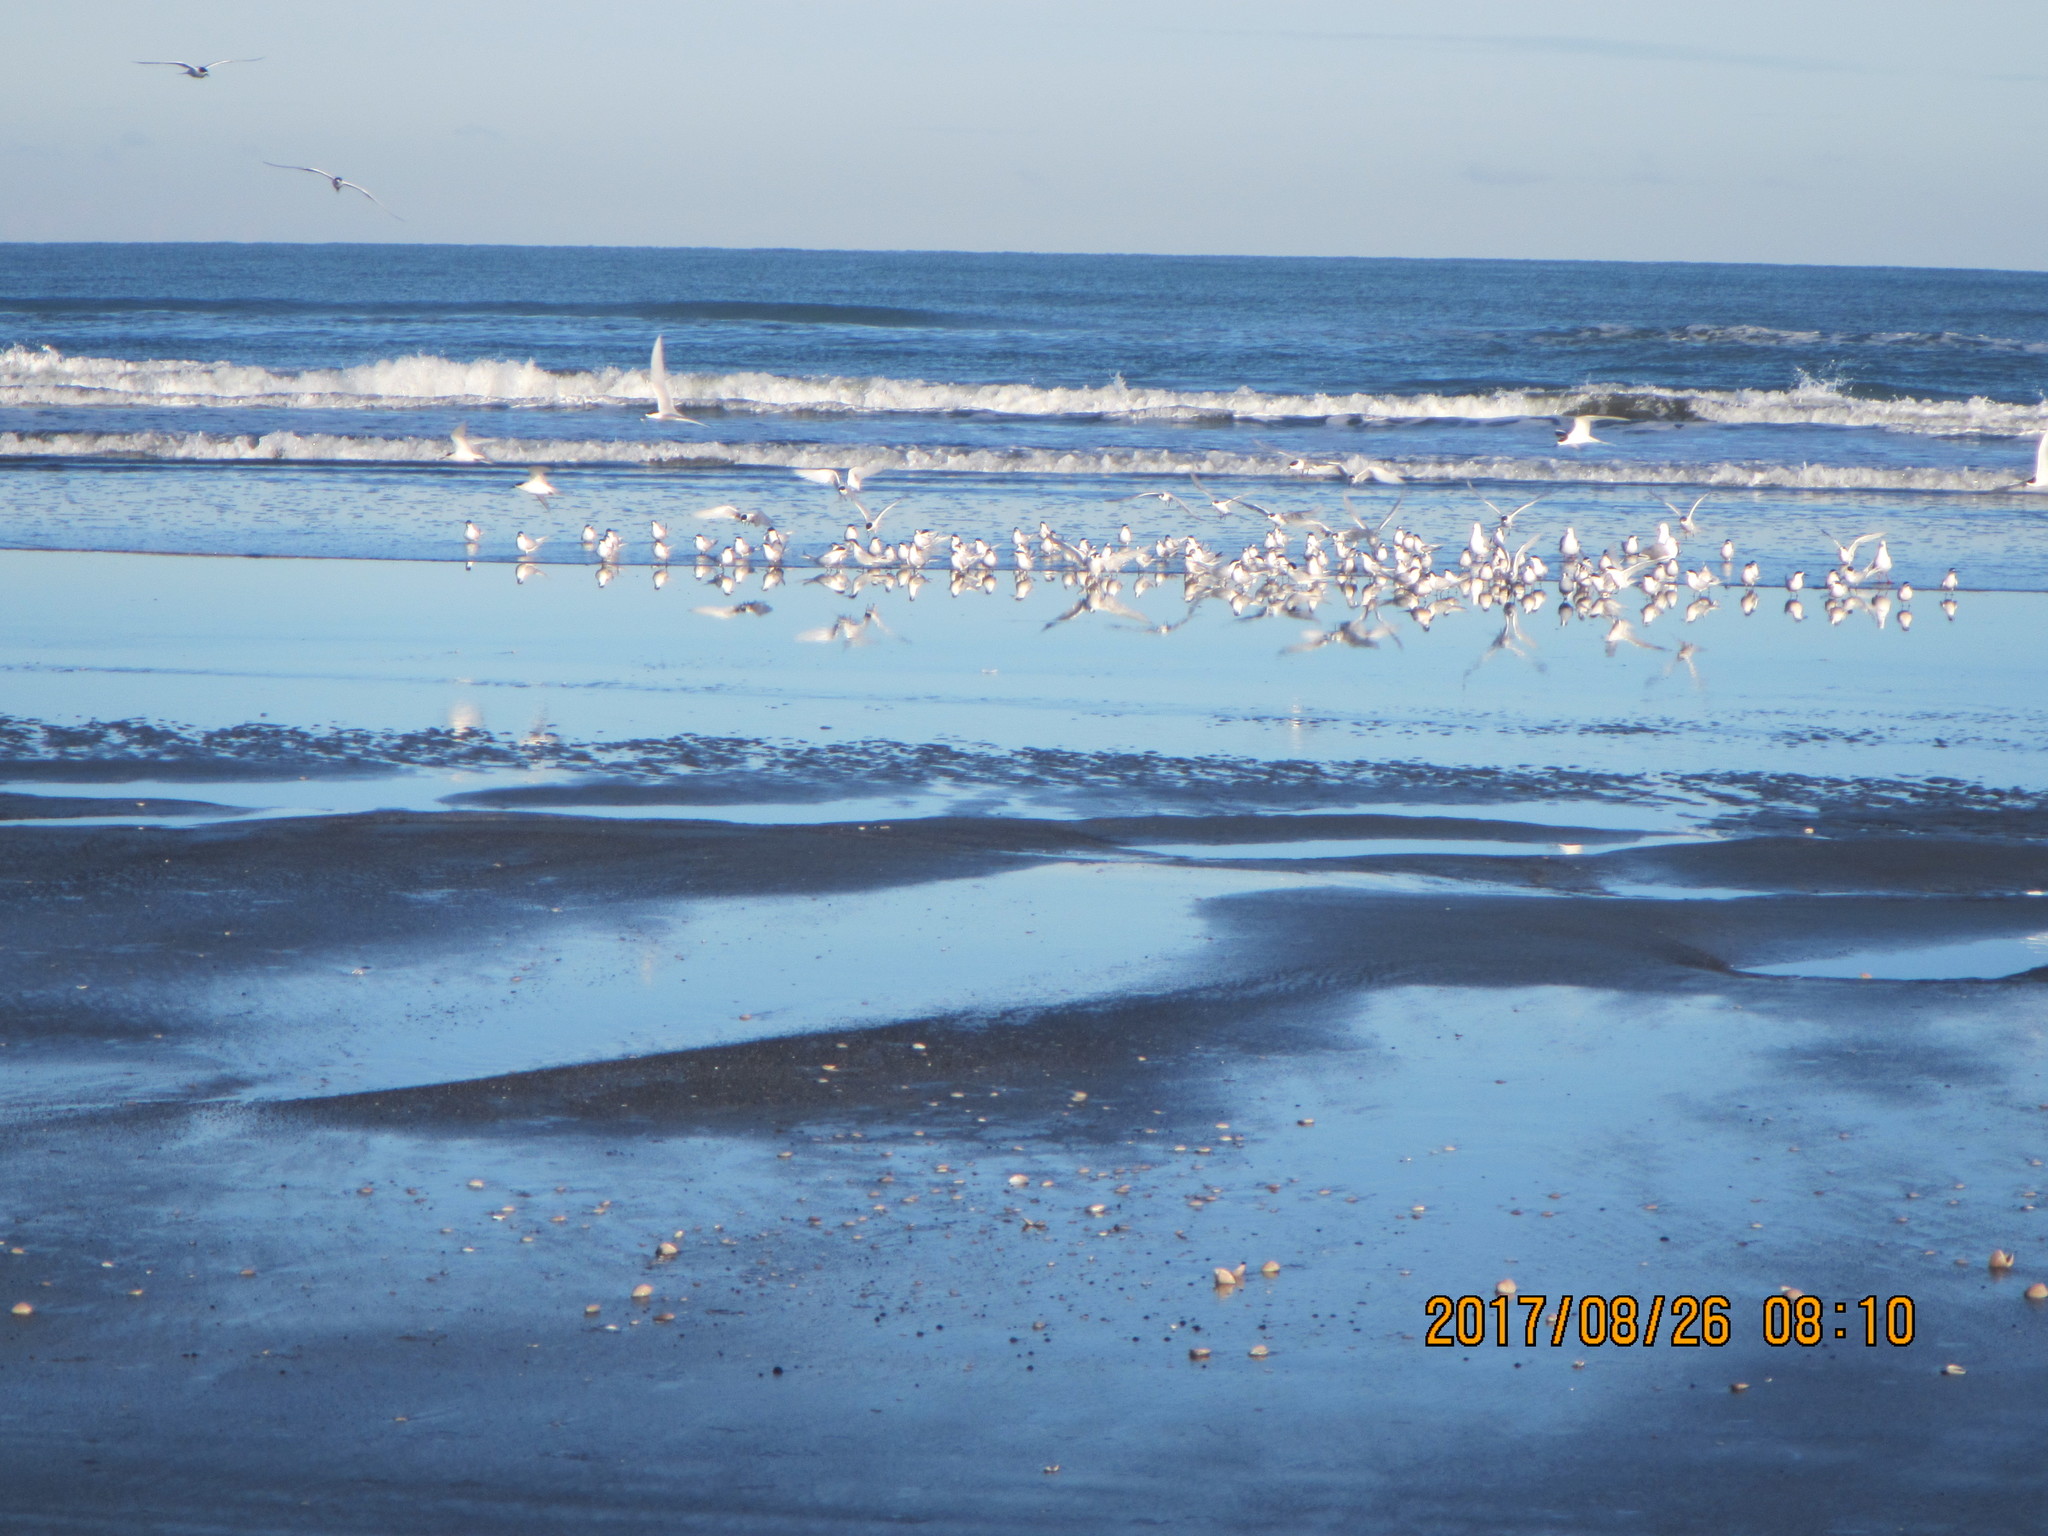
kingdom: Animalia
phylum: Chordata
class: Aves
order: Charadriiformes
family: Laridae
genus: Sterna
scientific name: Sterna striata
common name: White-fronted tern
